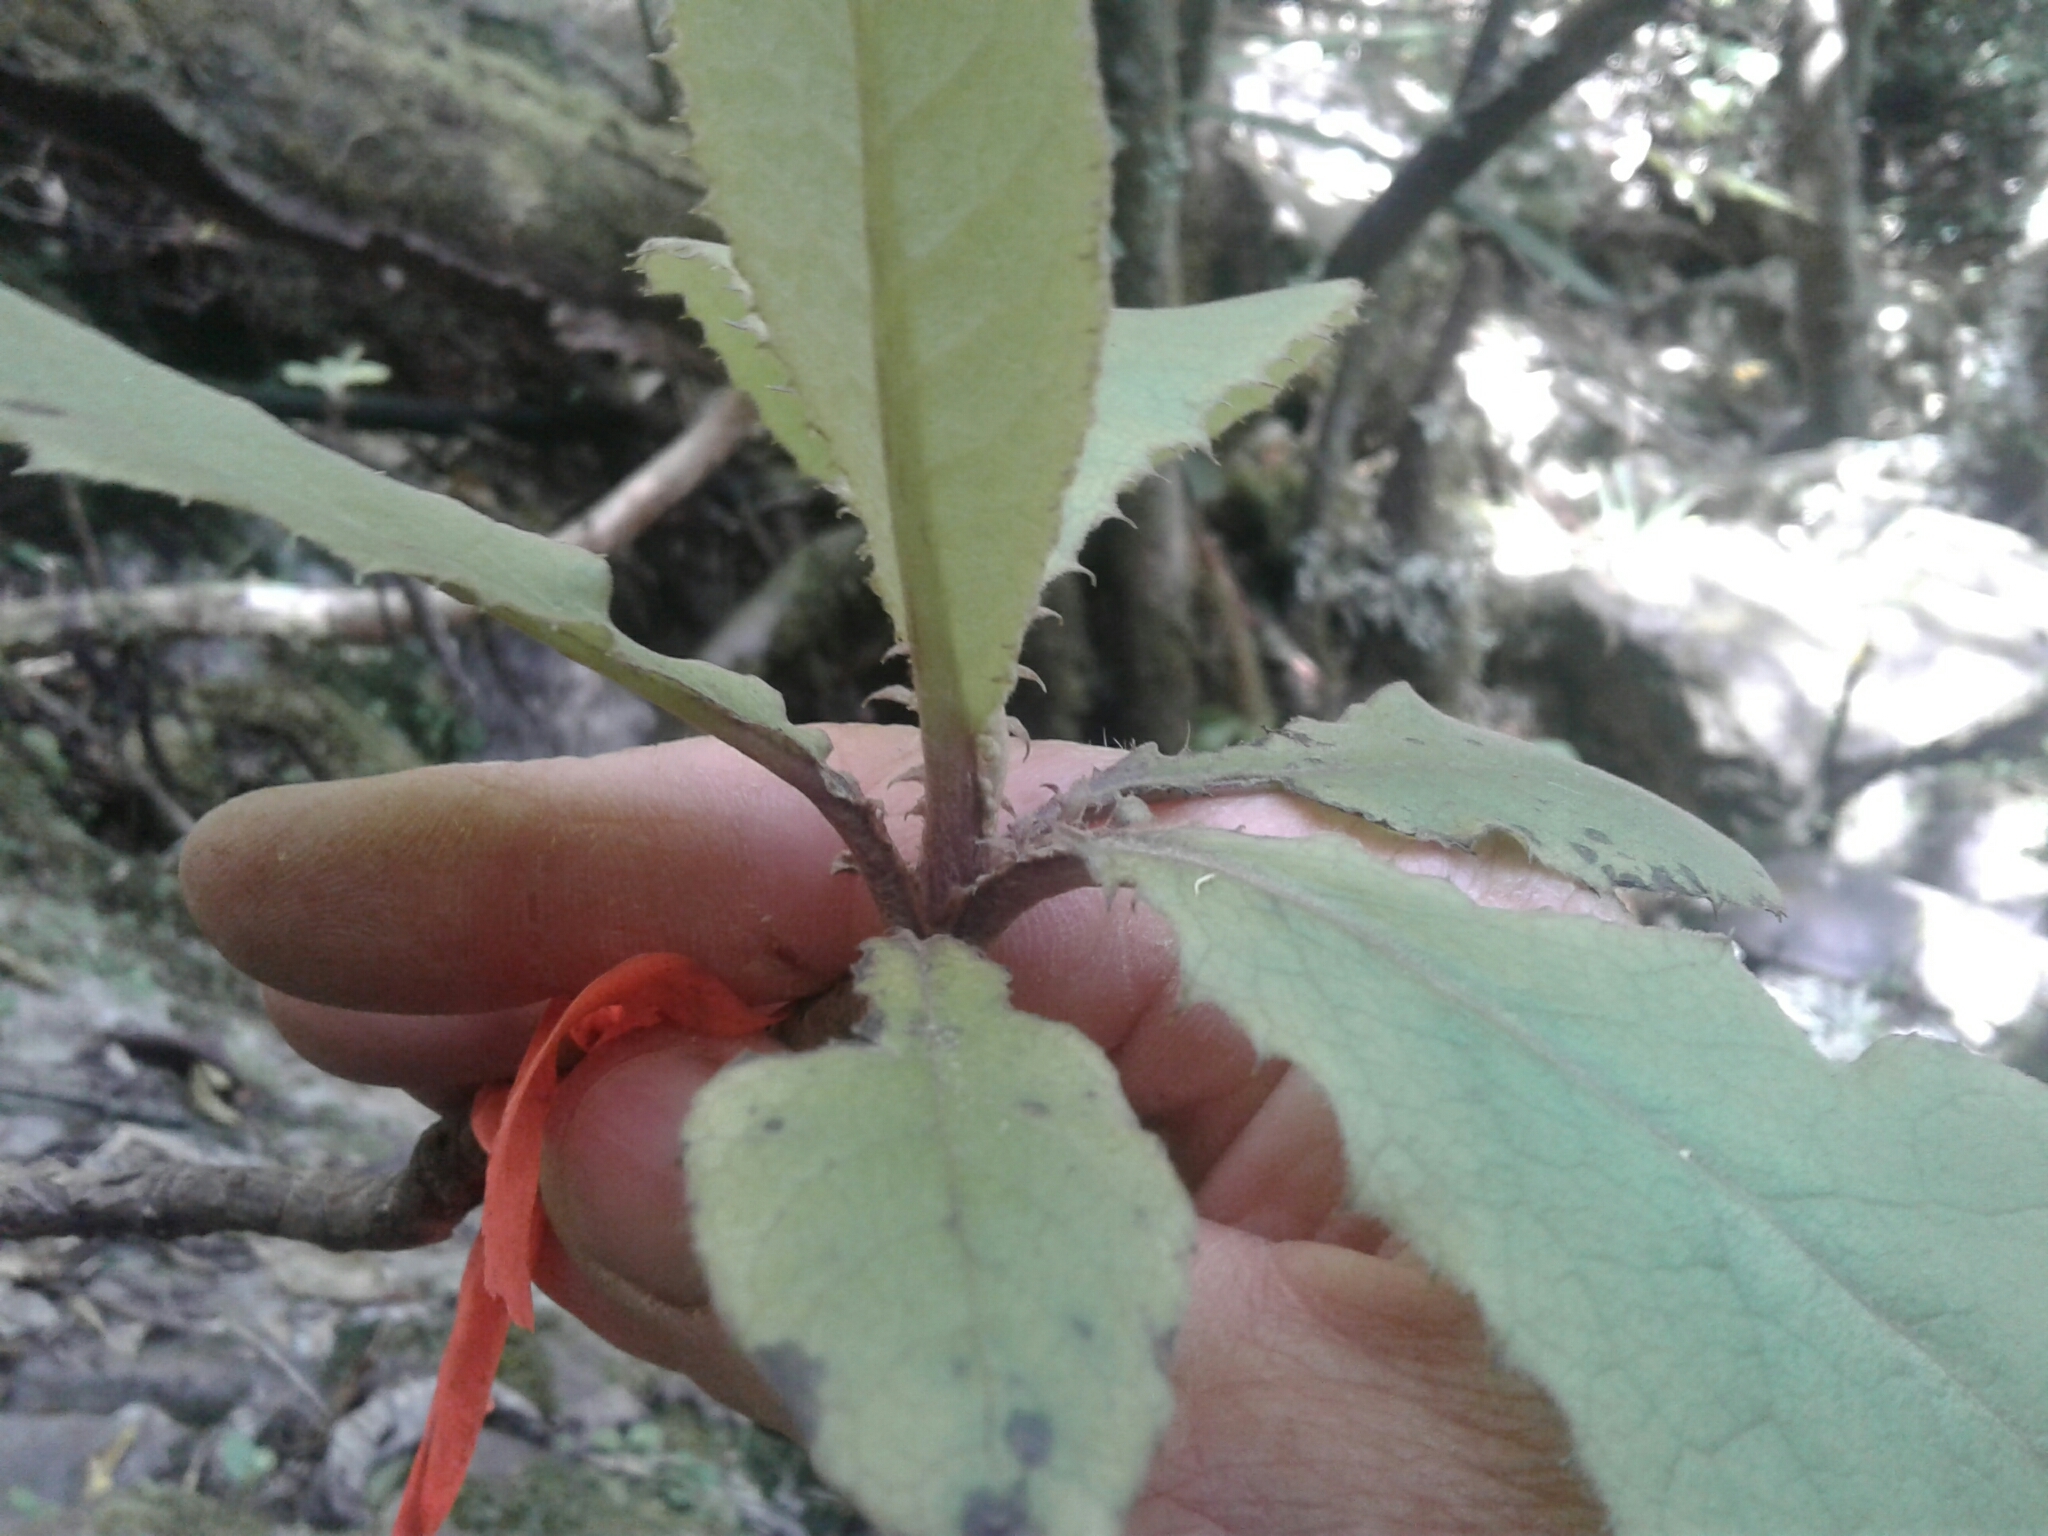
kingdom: Plantae
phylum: Tracheophyta
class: Magnoliopsida
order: Asterales
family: Asteraceae
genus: Brachyglottis
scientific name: Brachyglottis hectorii
